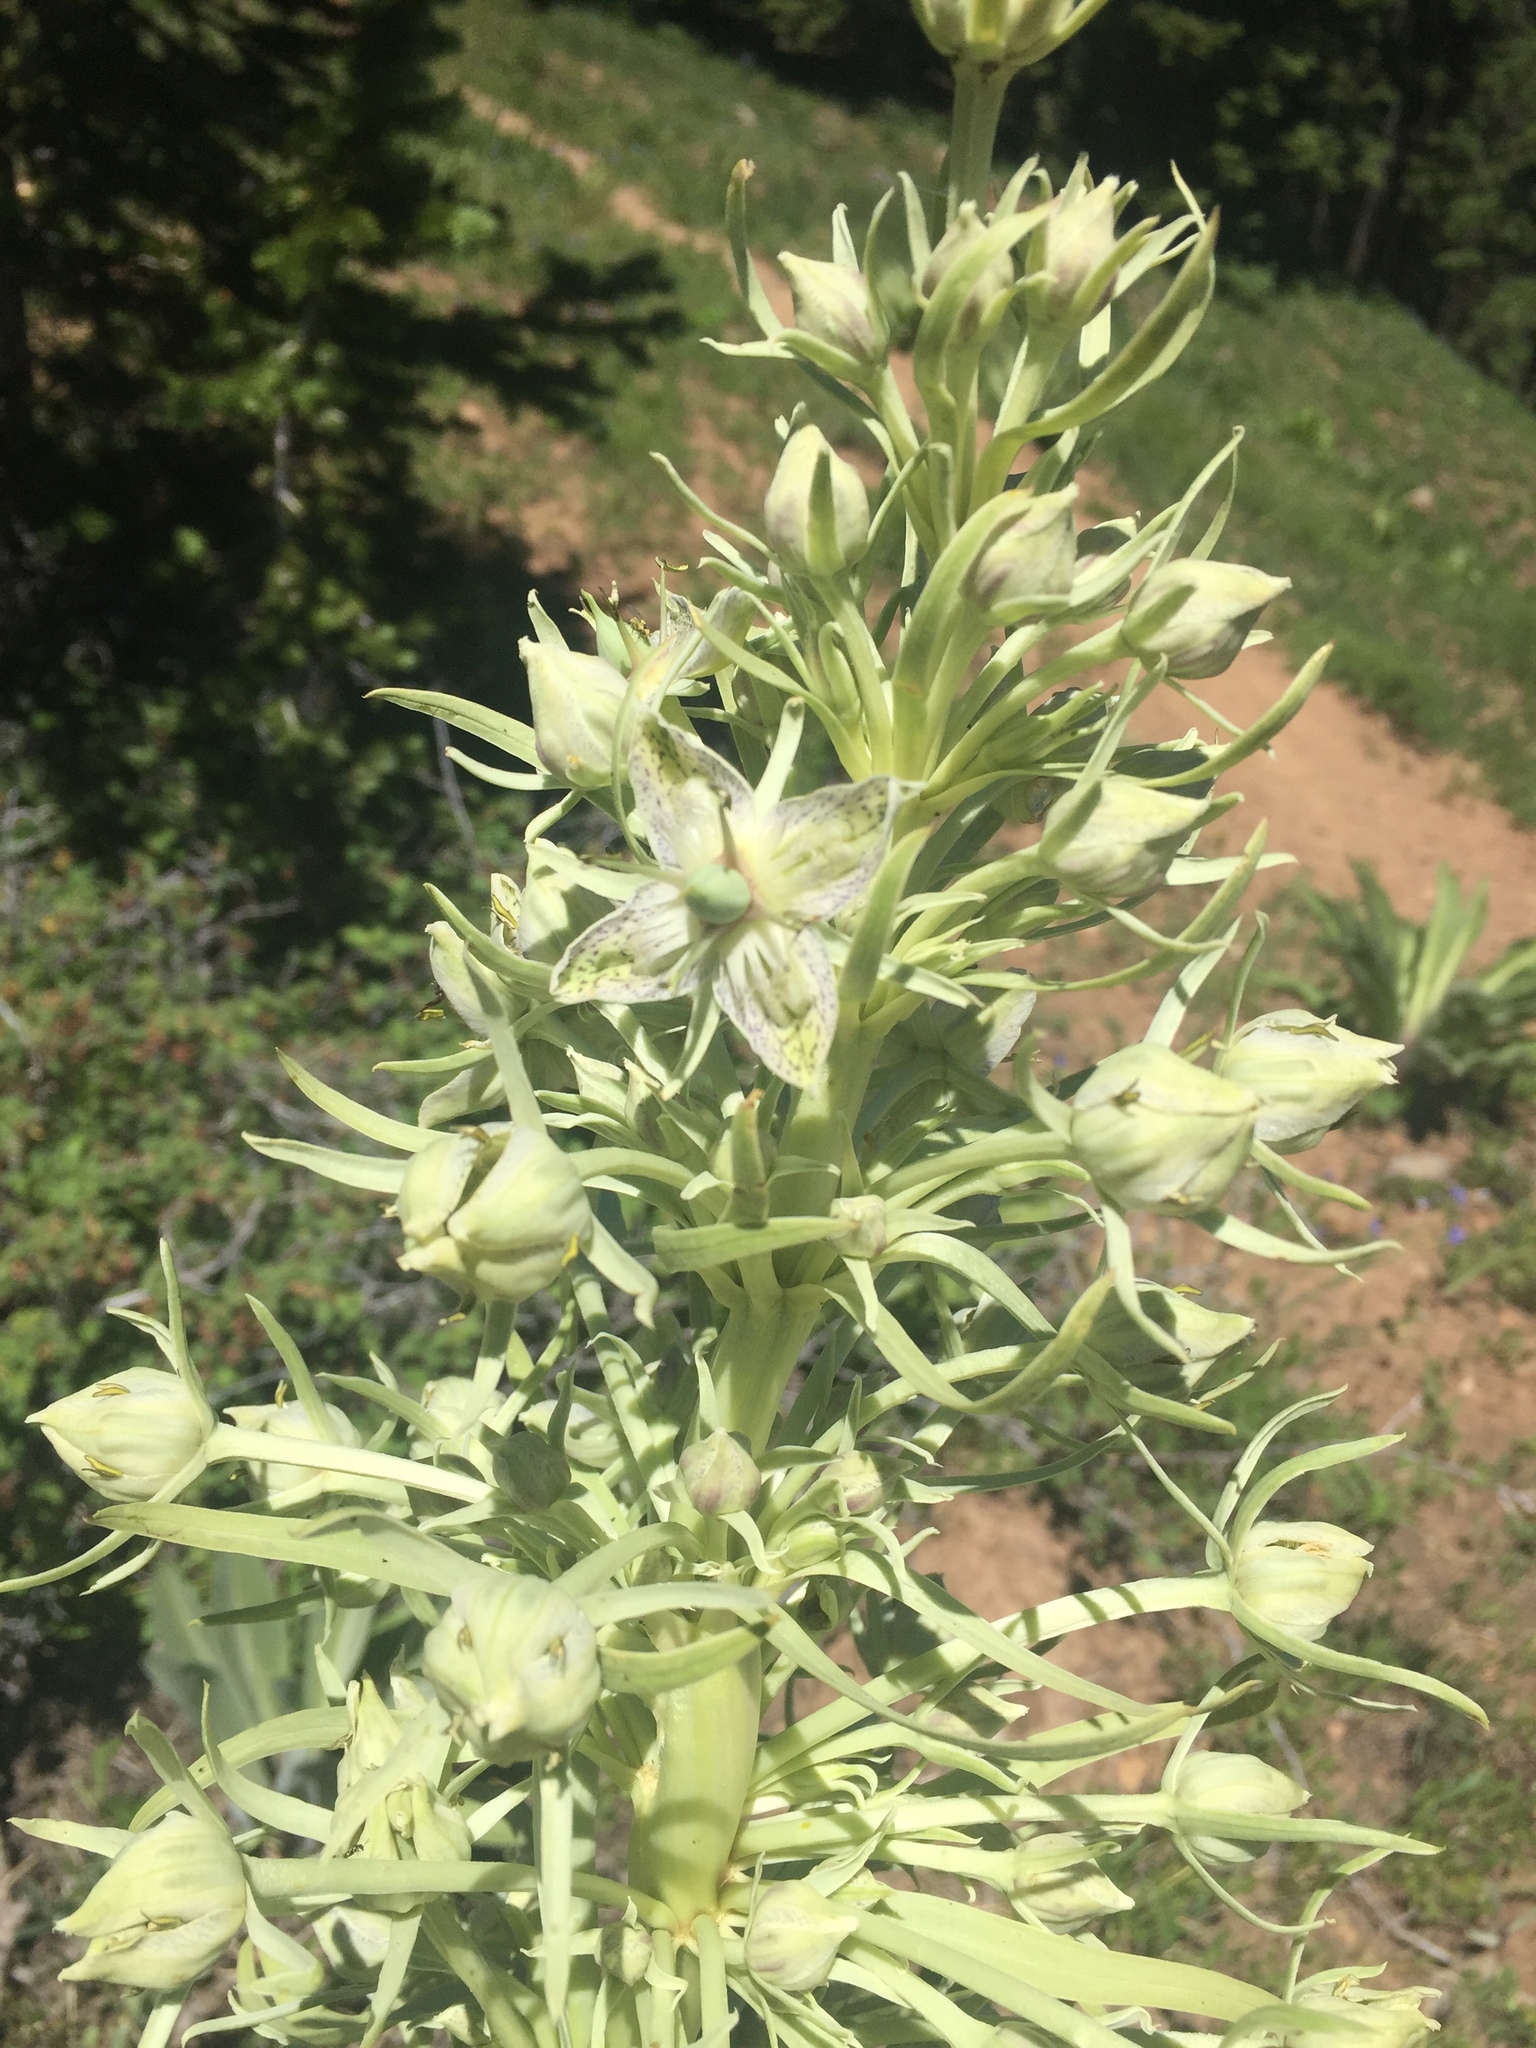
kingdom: Plantae
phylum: Tracheophyta
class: Magnoliopsida
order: Gentianales
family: Gentianaceae
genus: Frasera
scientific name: Frasera speciosa
